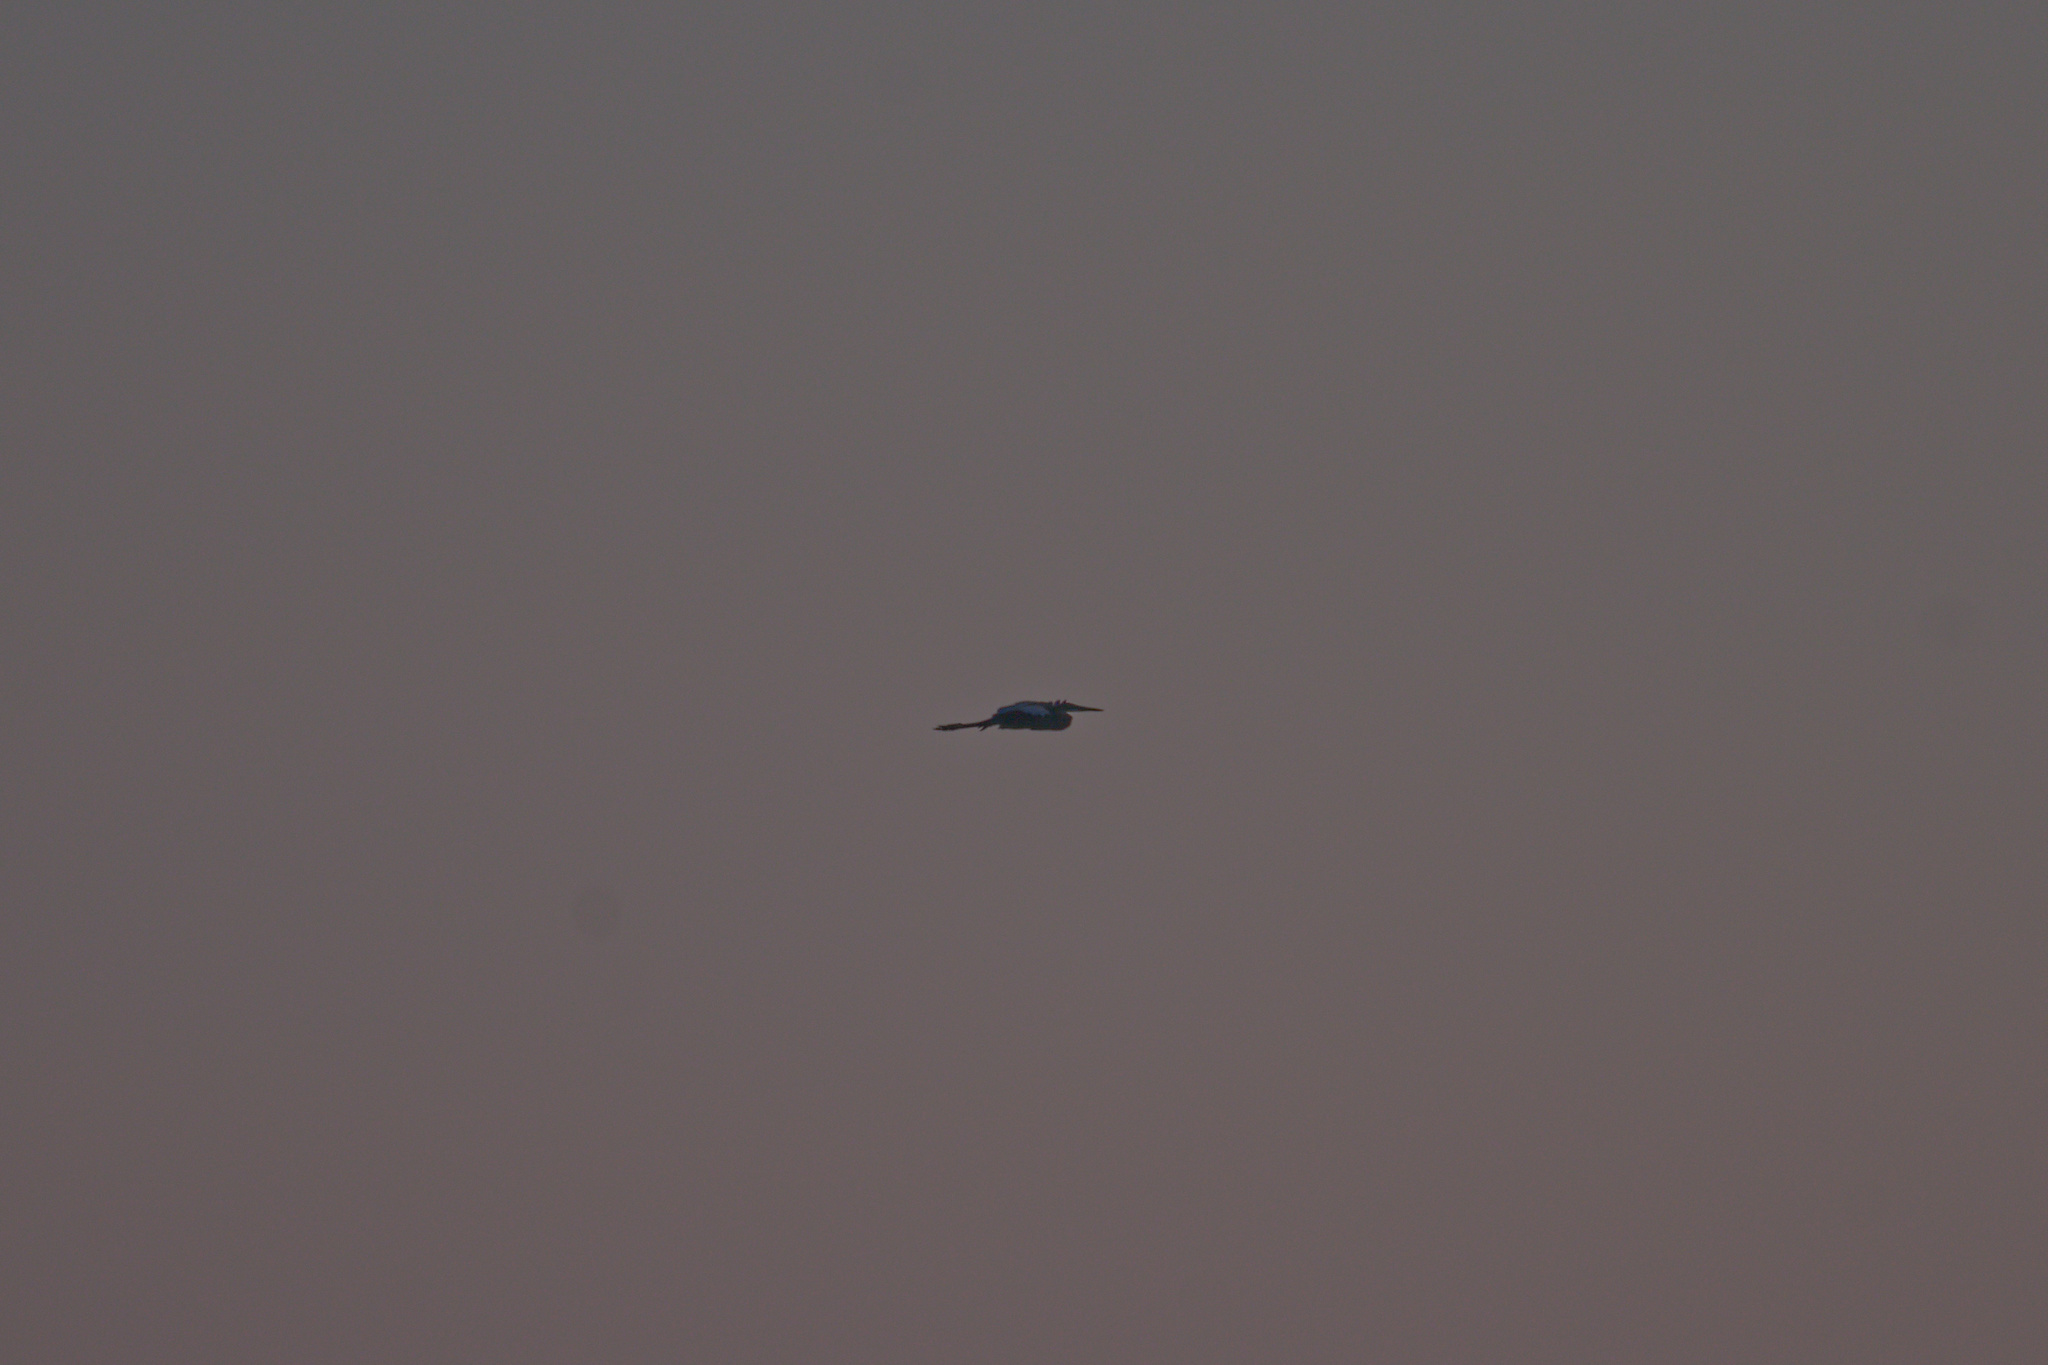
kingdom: Animalia
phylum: Chordata
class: Aves
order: Pelecaniformes
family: Ardeidae
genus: Ardea
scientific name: Ardea purpurea
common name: Purple heron
